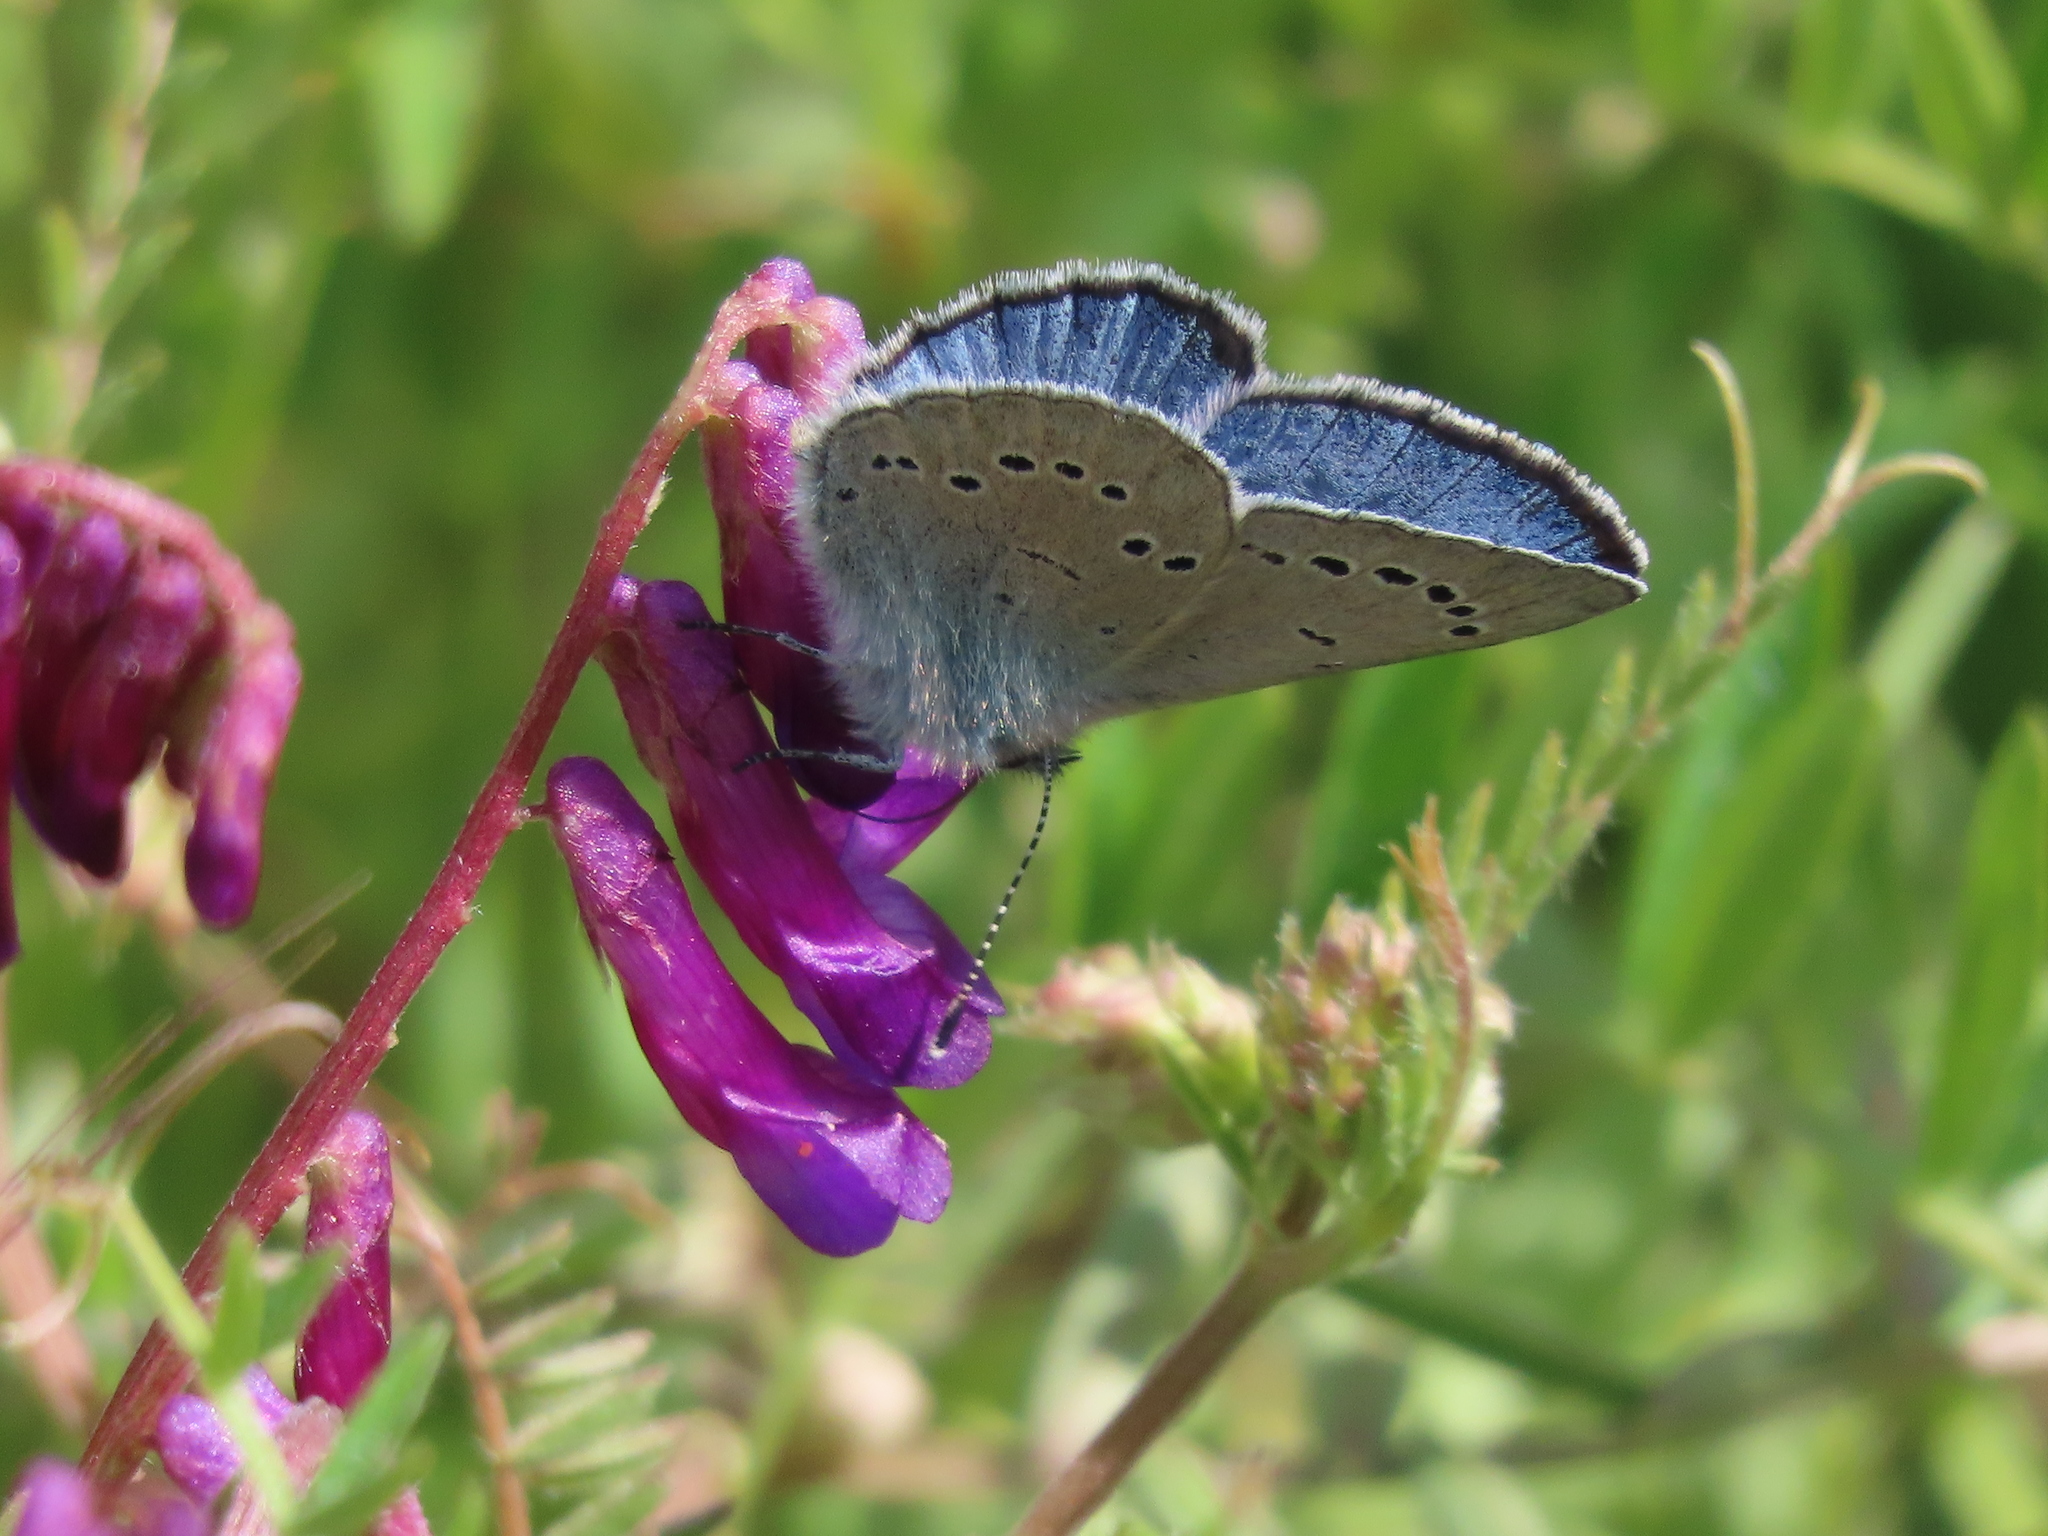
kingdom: Animalia
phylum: Arthropoda
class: Insecta
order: Lepidoptera
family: Lycaenidae
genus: Glaucopsyche
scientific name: Glaucopsyche lygdamus
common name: Silvery blue
